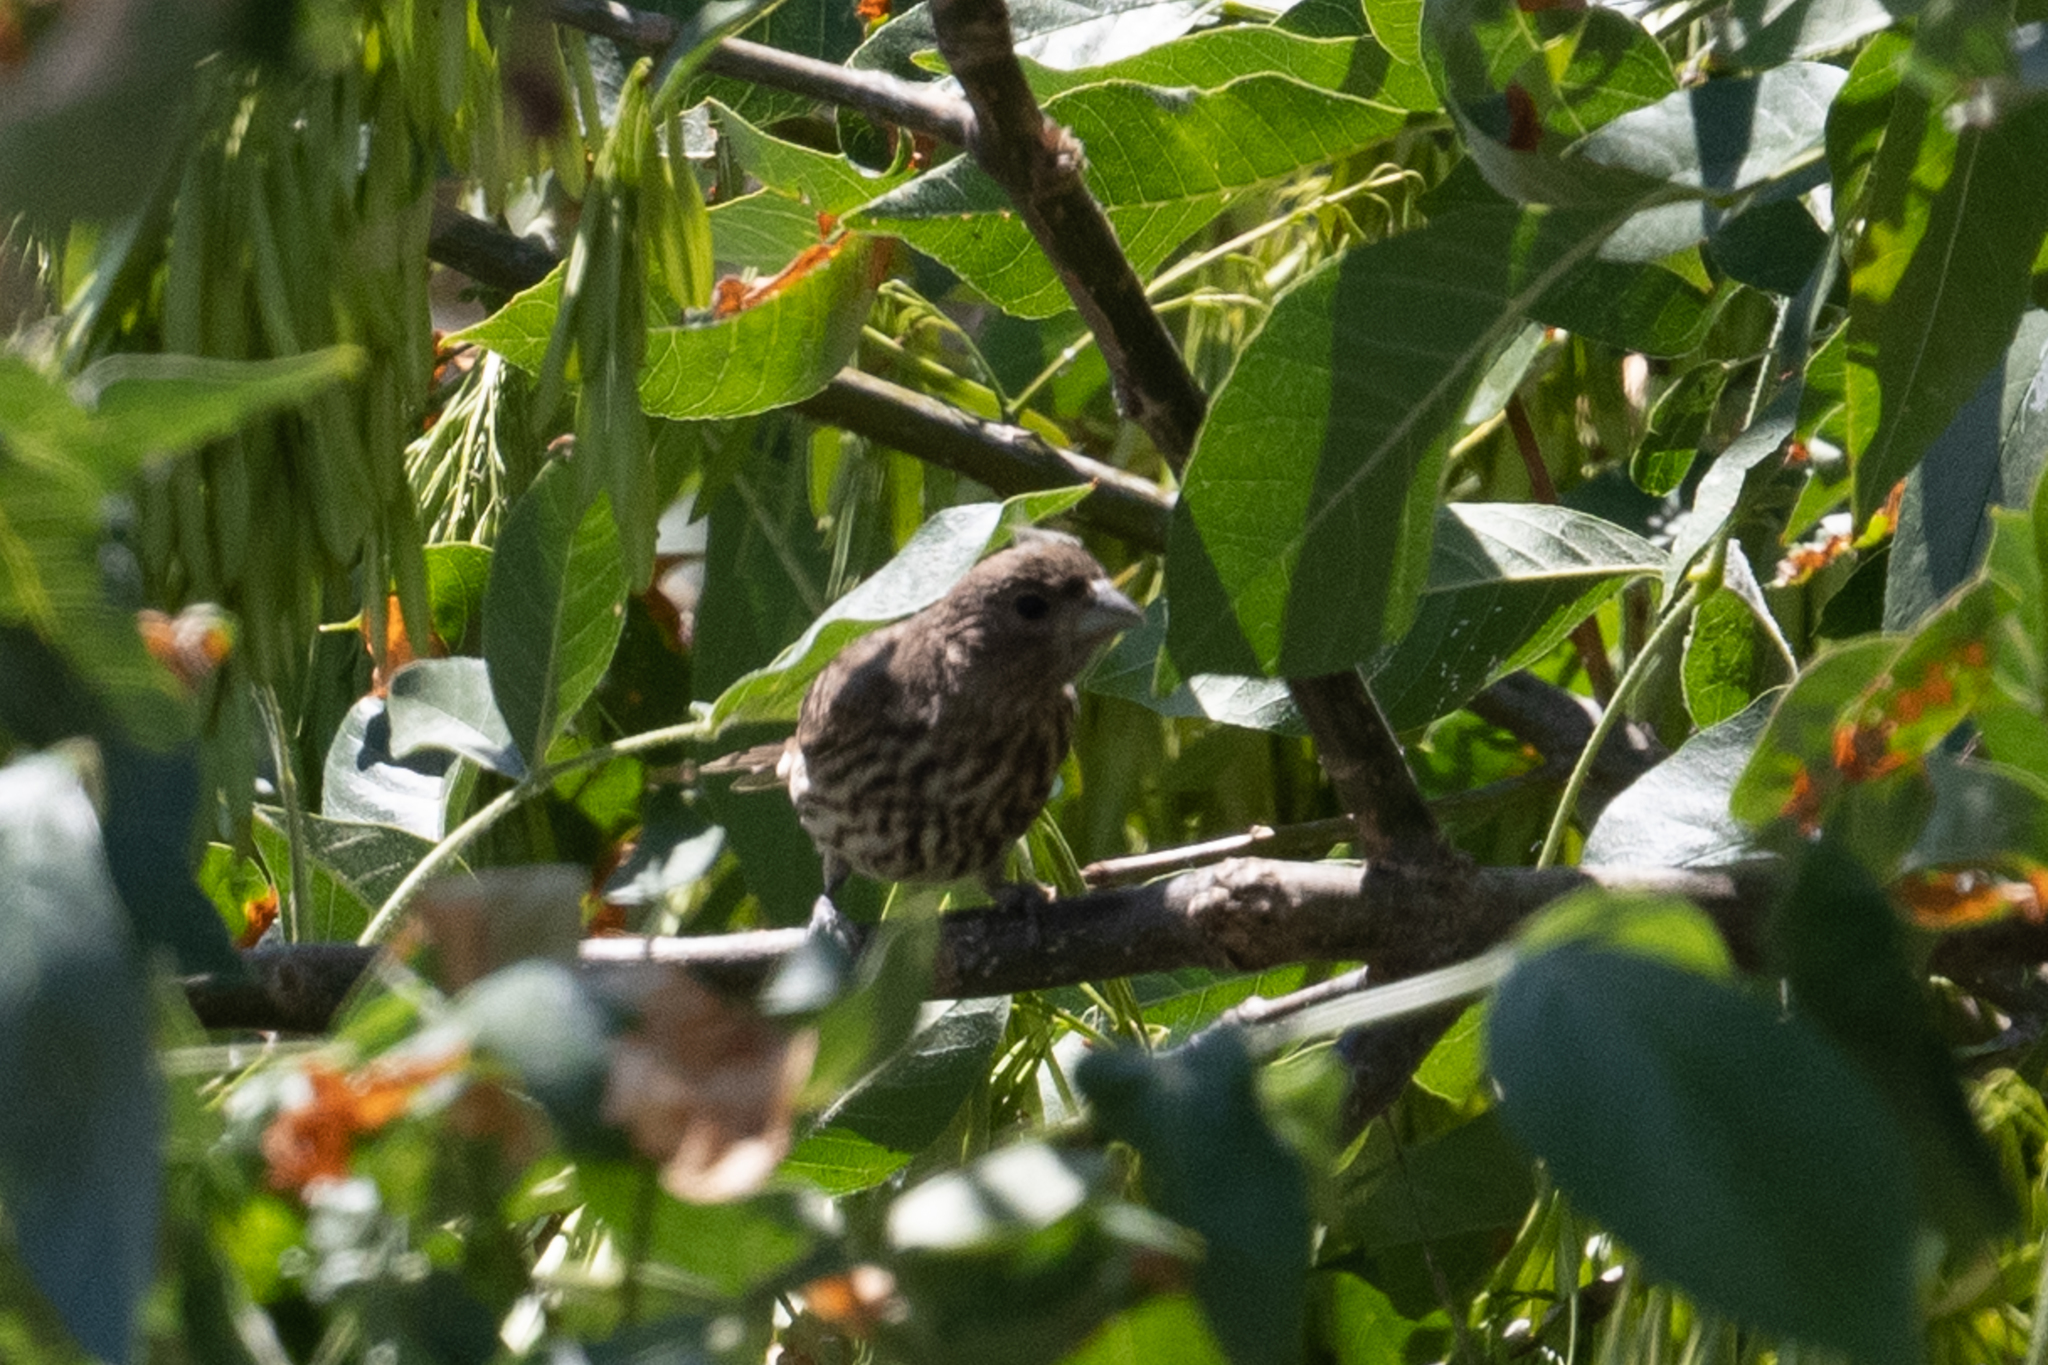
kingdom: Animalia
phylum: Chordata
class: Aves
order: Passeriformes
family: Fringillidae
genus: Haemorhous
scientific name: Haemorhous mexicanus
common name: House finch
